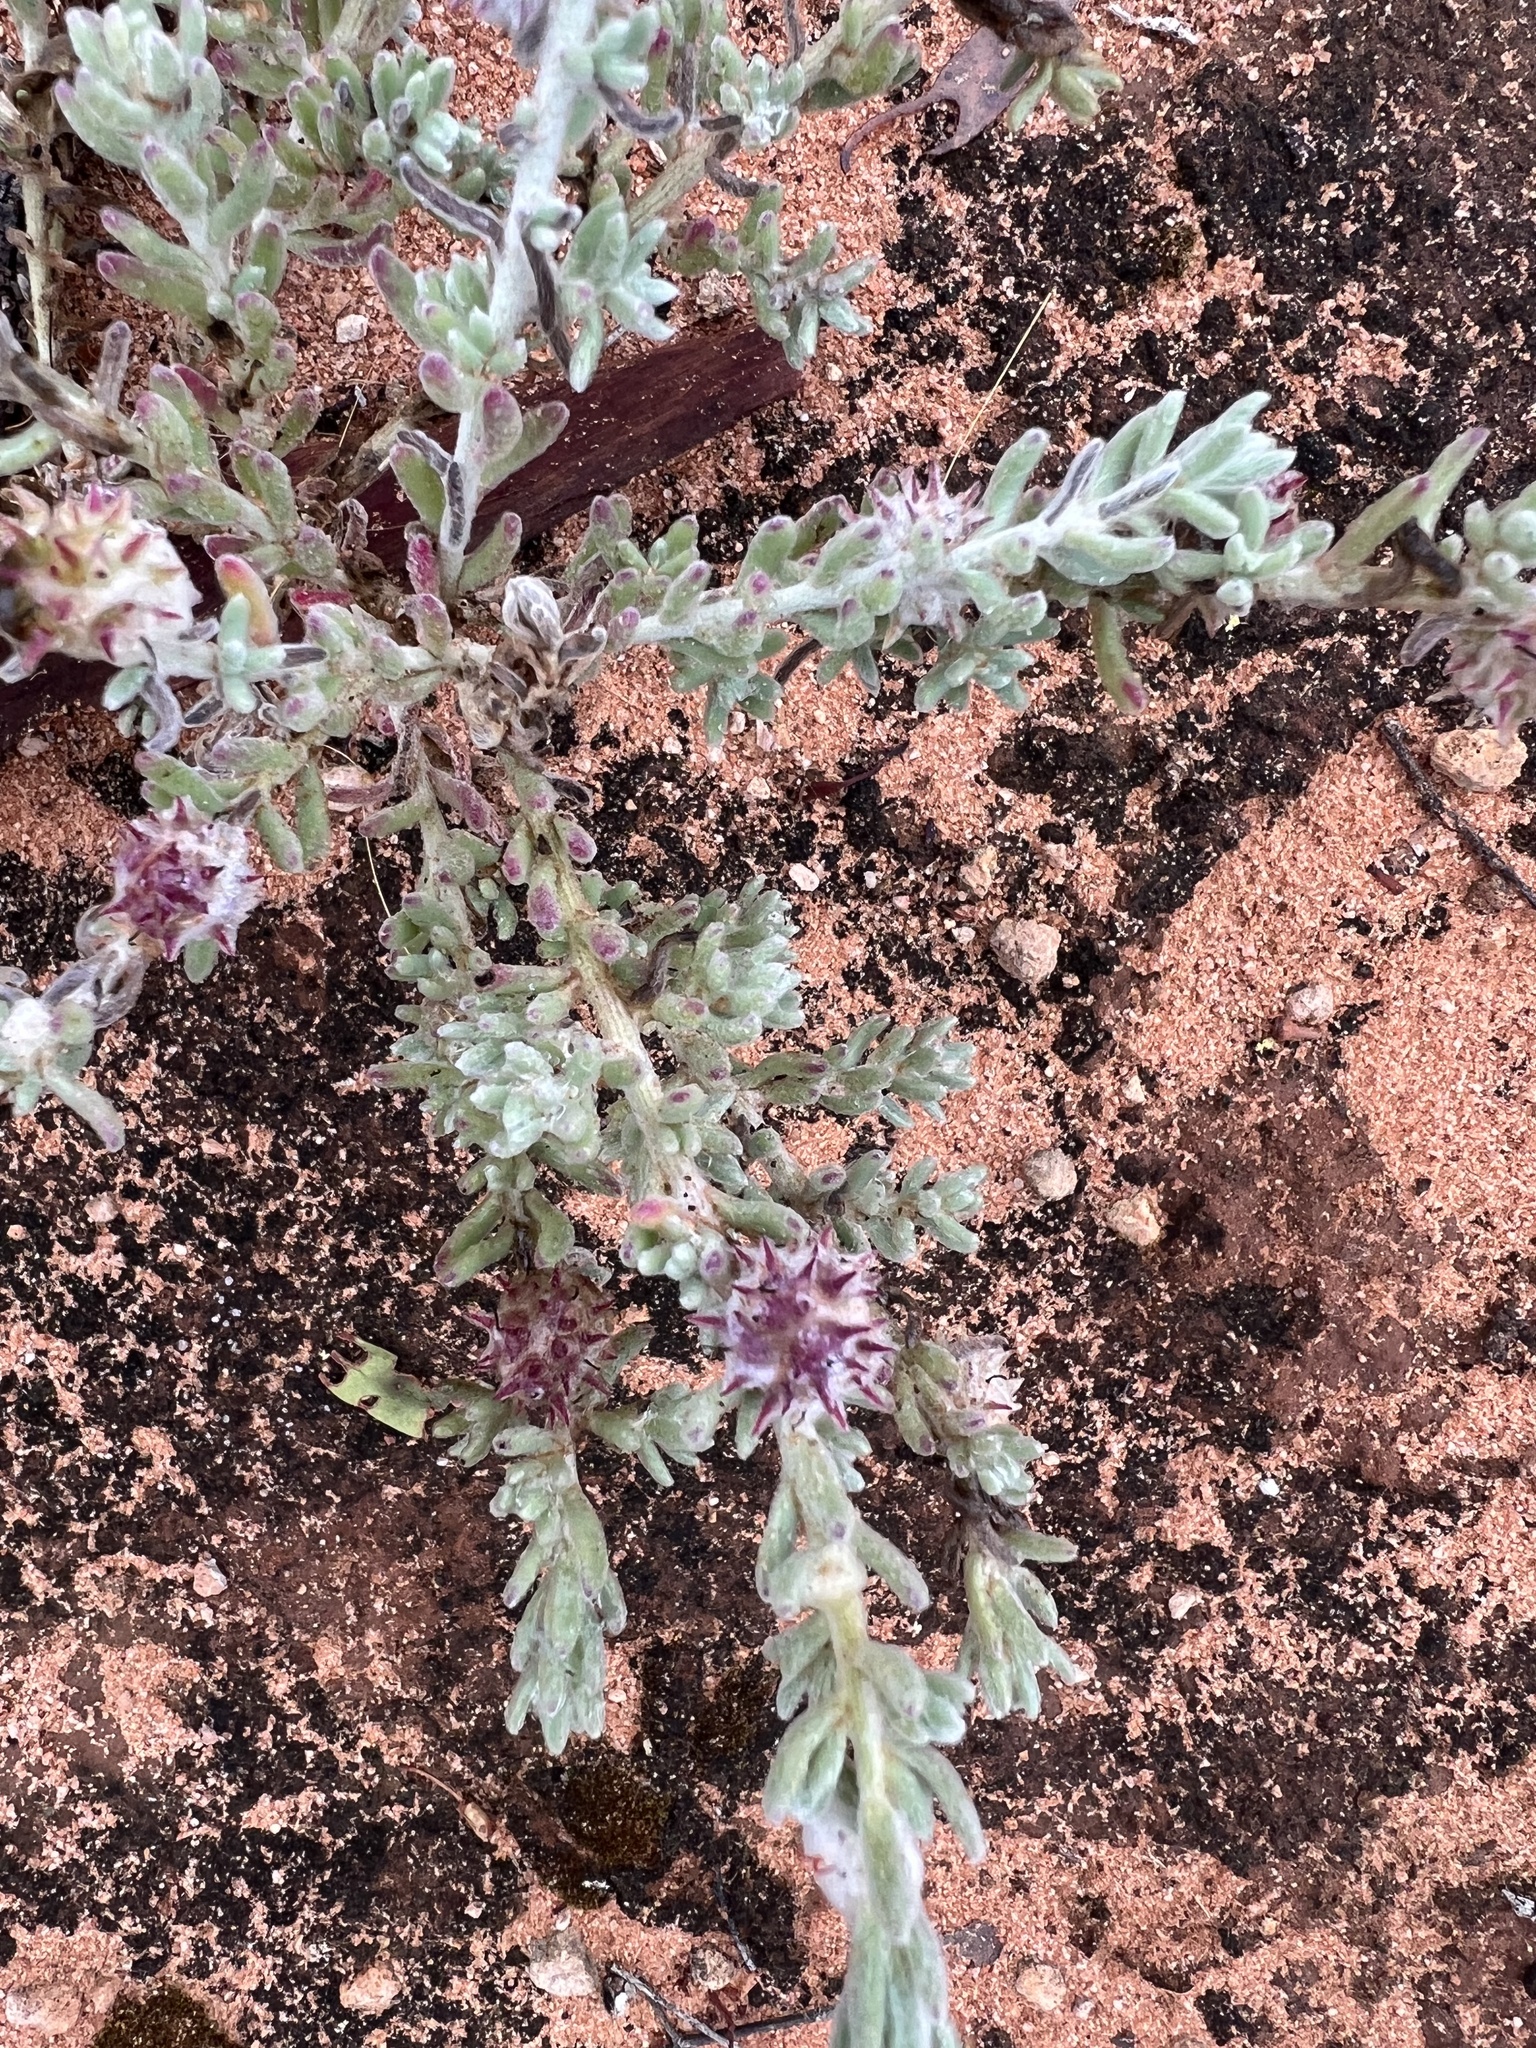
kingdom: Plantae
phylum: Tracheophyta
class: Magnoliopsida
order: Caryophyllales
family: Amaranthaceae
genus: Dissocarpus
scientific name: Dissocarpus paradoxus
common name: Bur-saltbush
